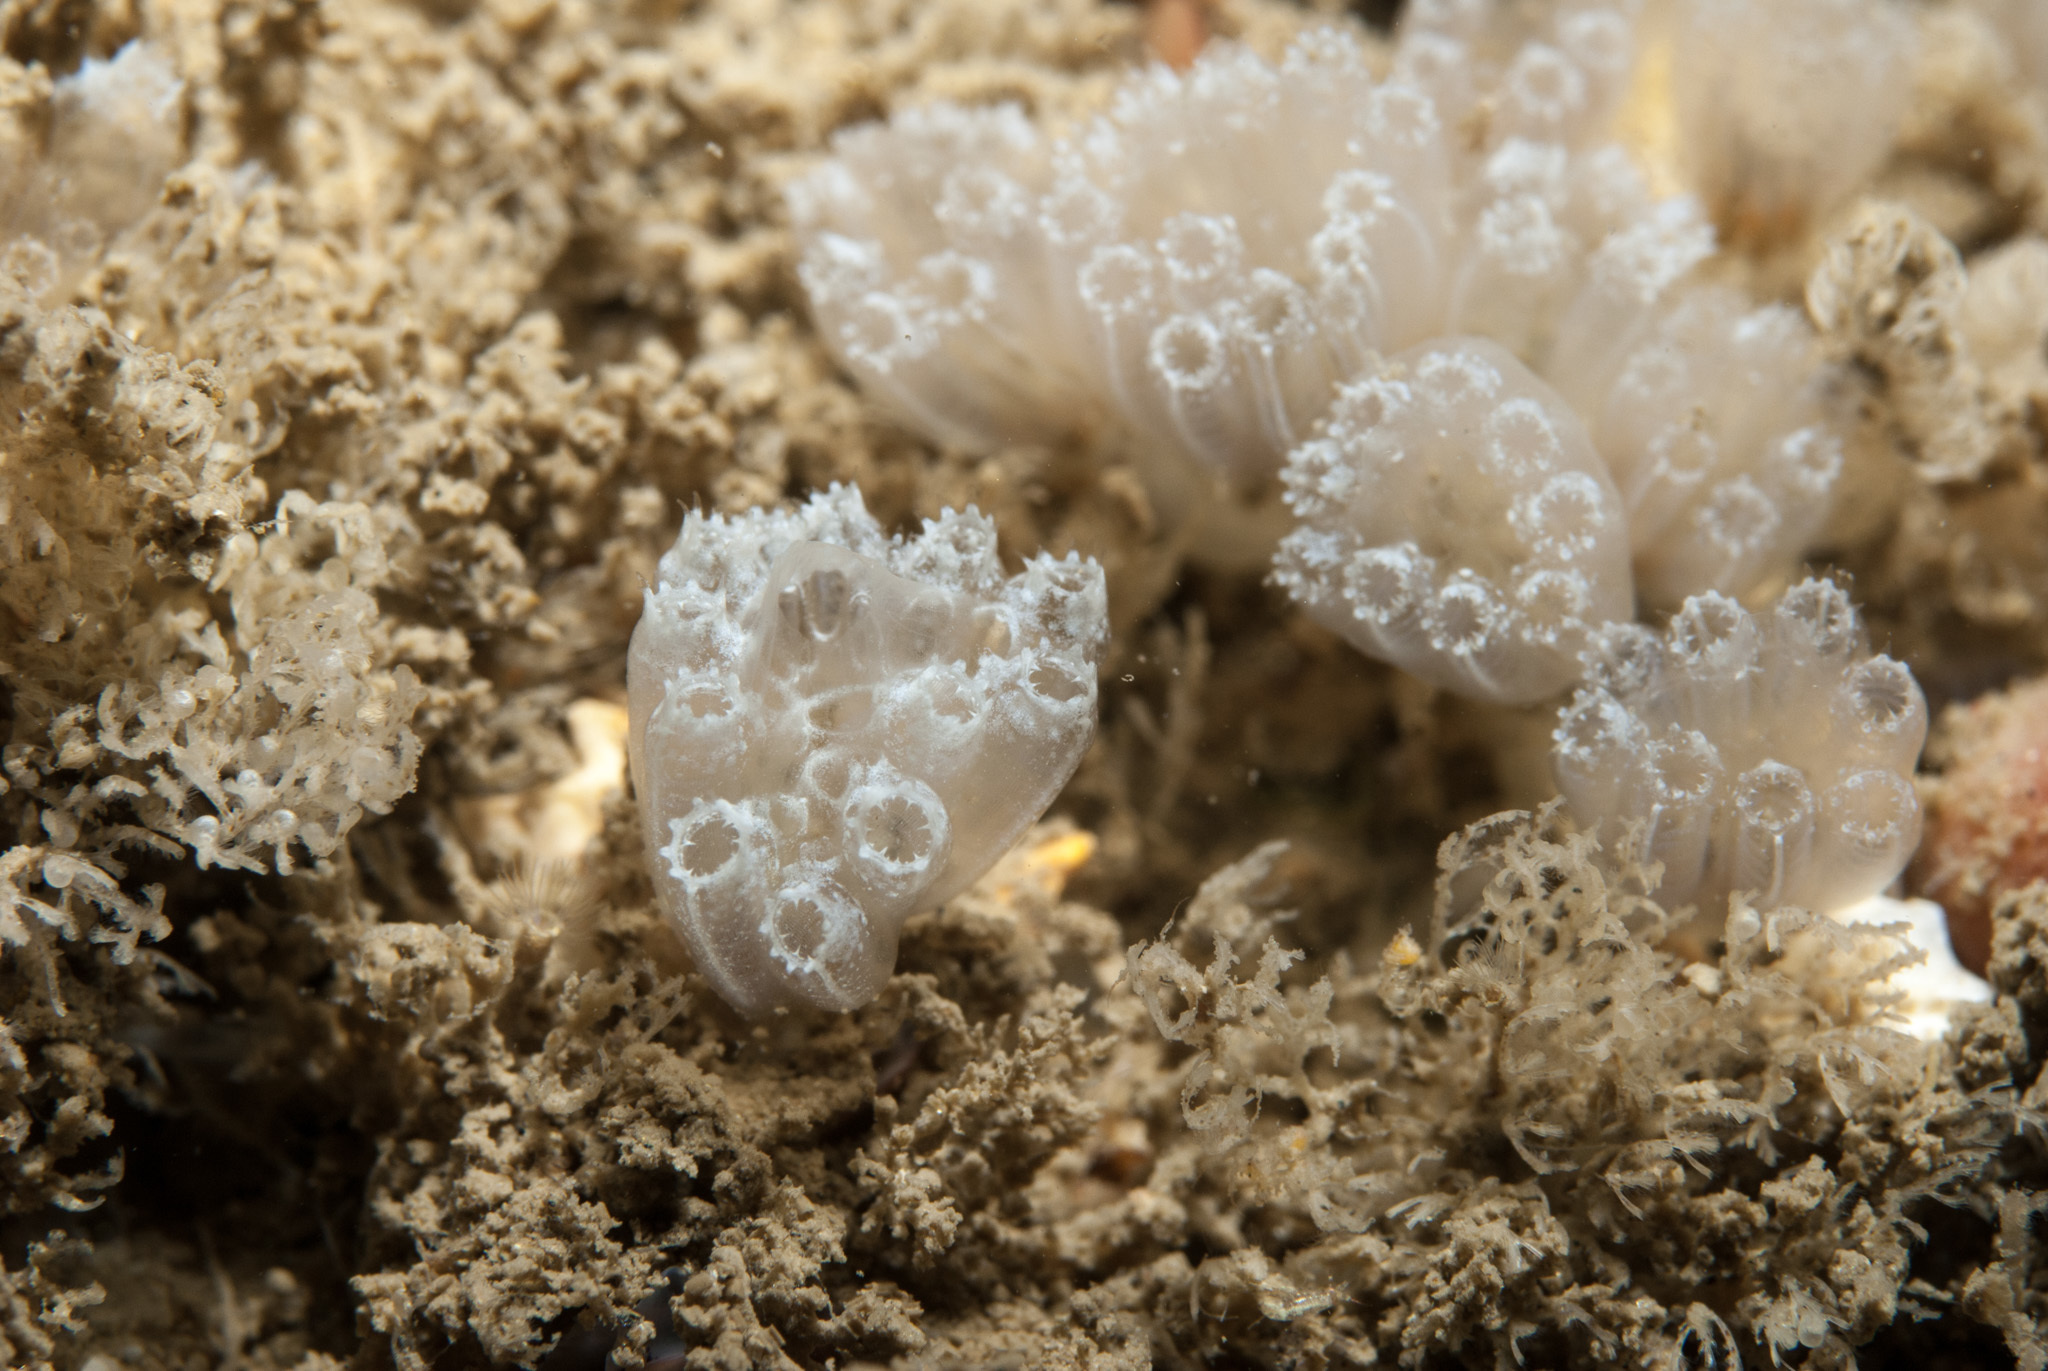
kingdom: Animalia
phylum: Chordata
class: Ascidiacea
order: Aplousobranchia
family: Polyclinidae
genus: Aplidium
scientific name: Aplidium turbinatum
